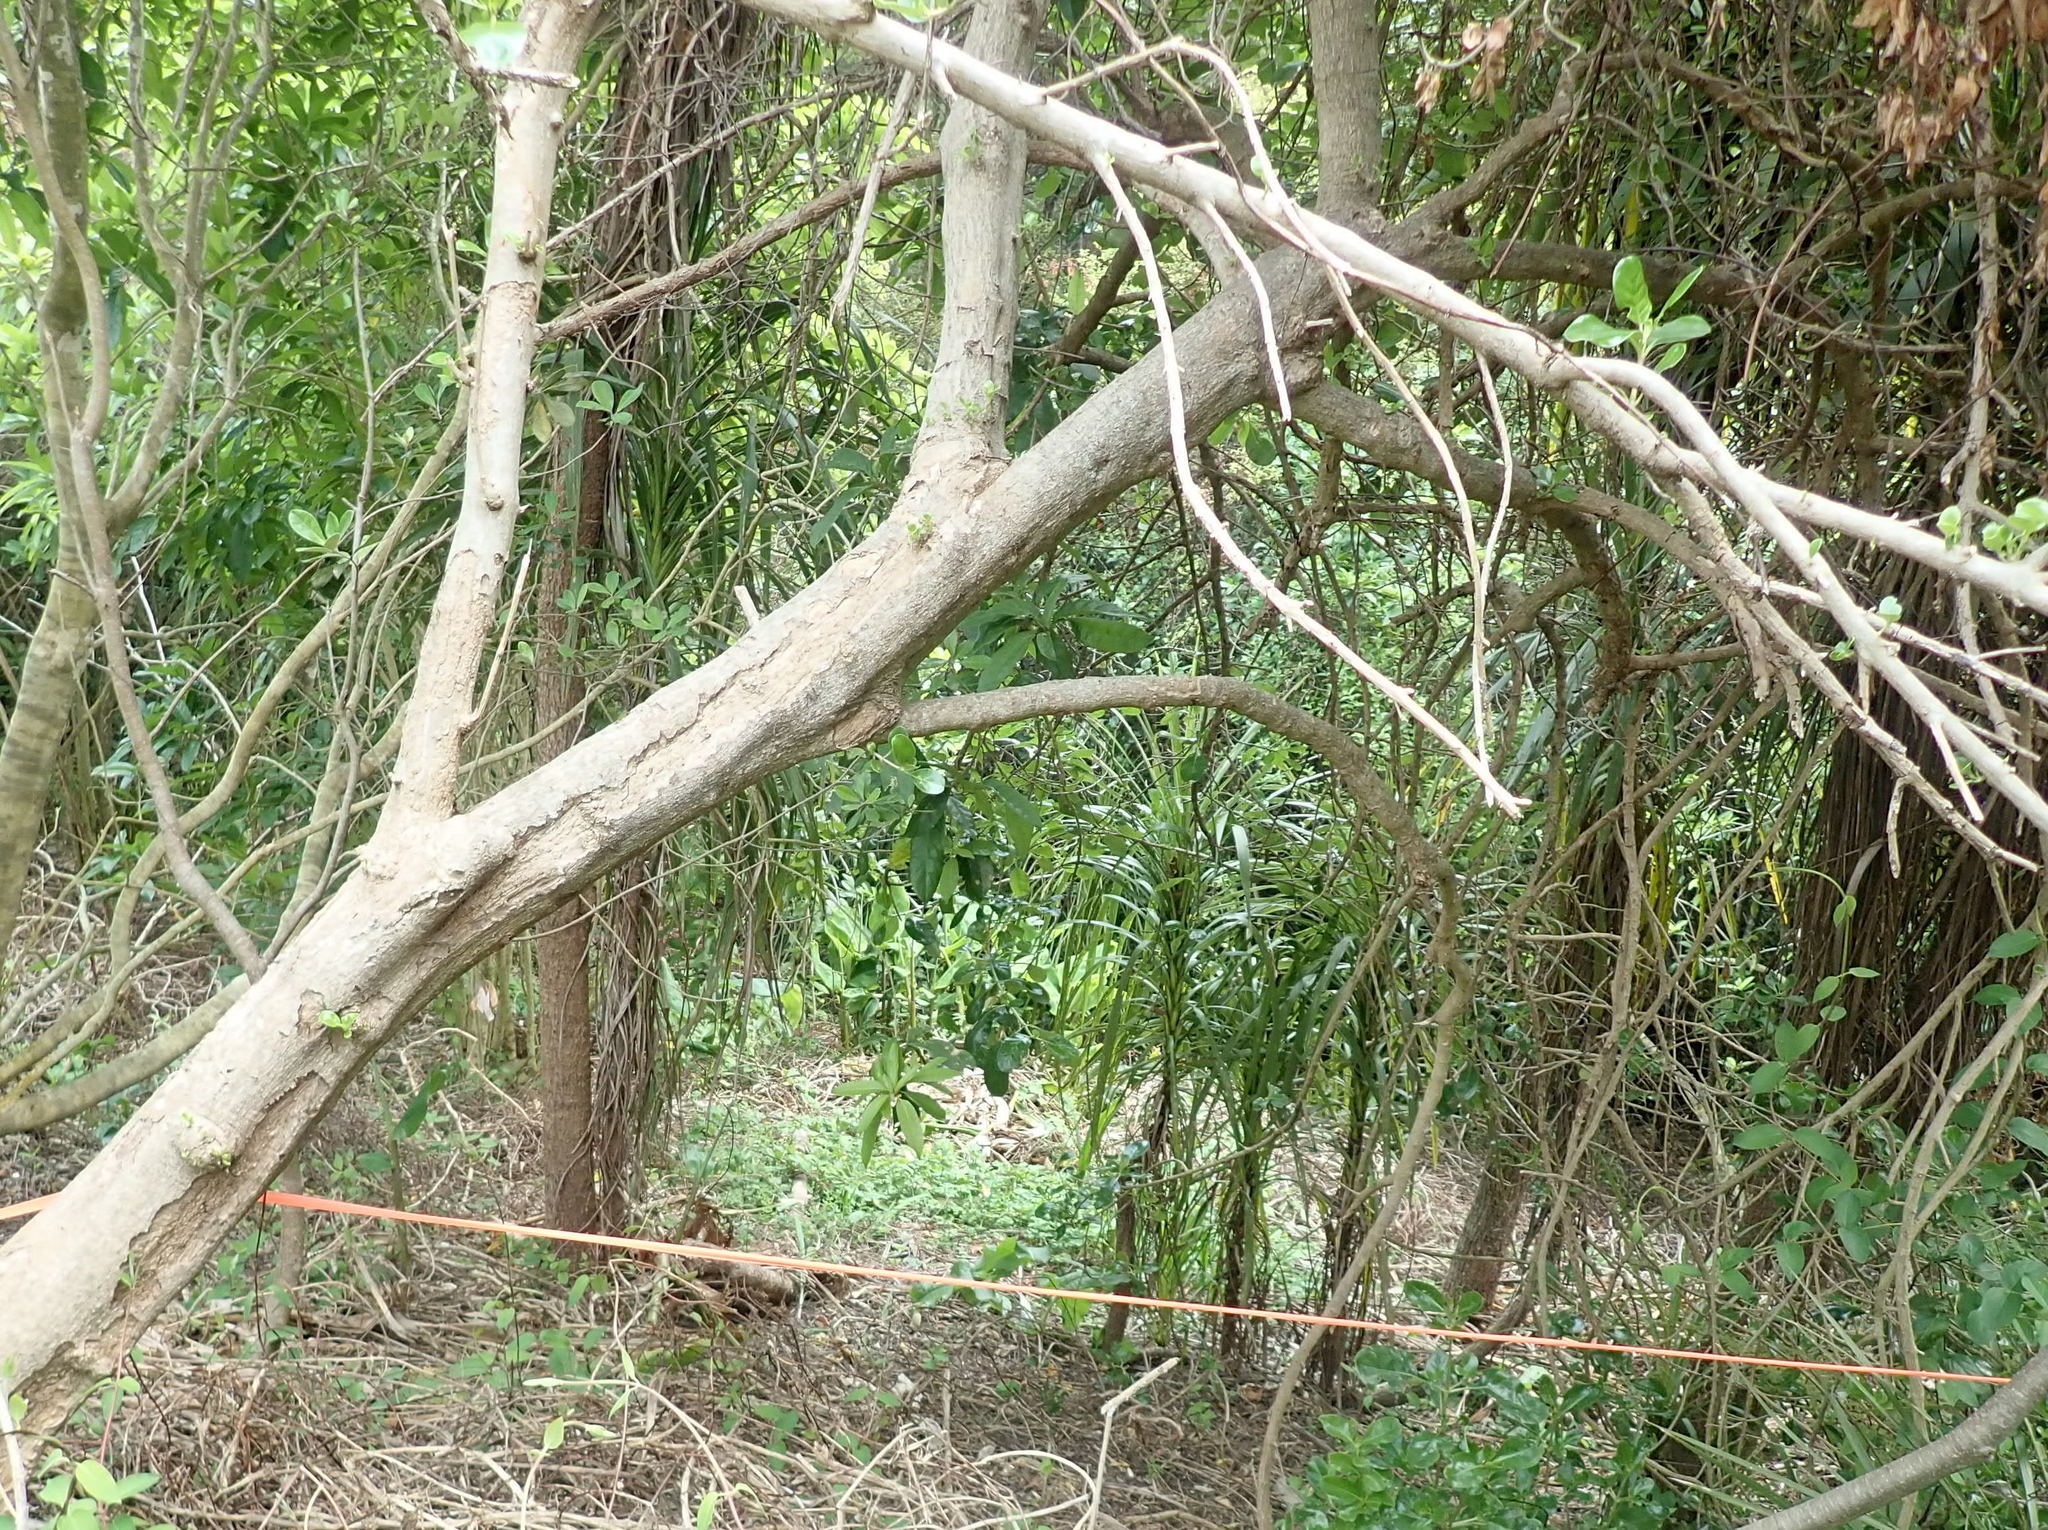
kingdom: Plantae
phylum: Tracheophyta
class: Liliopsida
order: Asparagales
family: Asparagaceae
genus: Cordyline
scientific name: Cordyline australis
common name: Cabbage-palm
